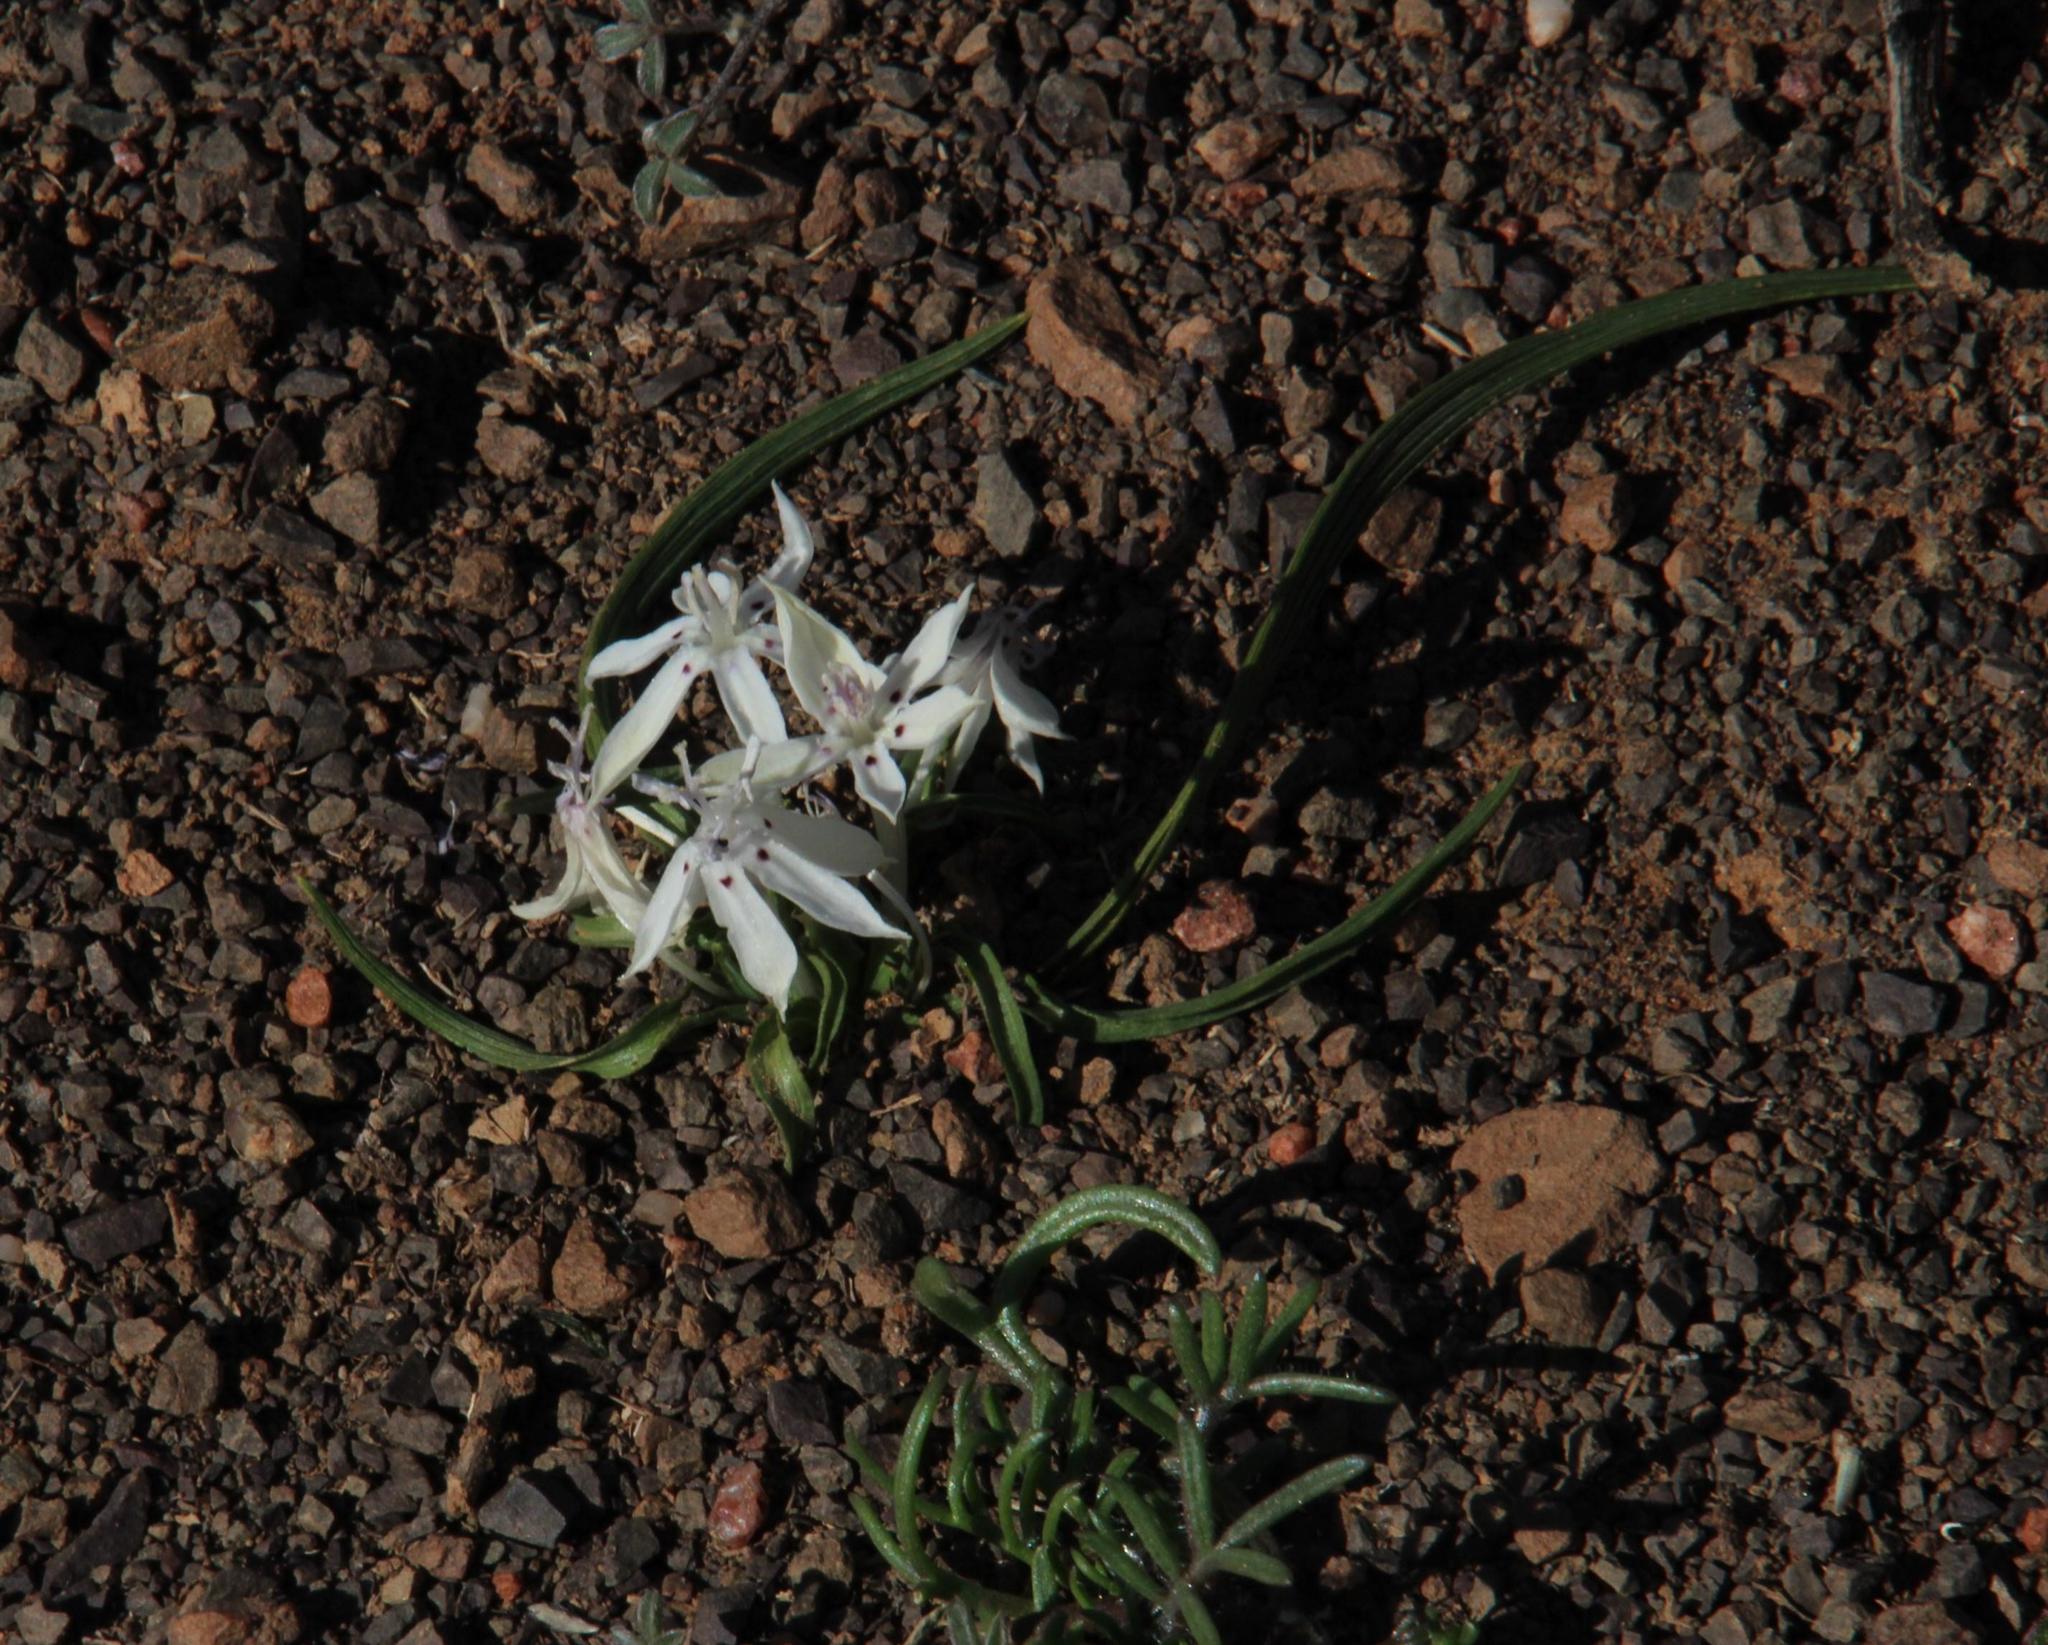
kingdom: Plantae
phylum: Tracheophyta
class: Liliopsida
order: Asparagales
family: Iridaceae
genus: Lapeirousia
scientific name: Lapeirousia plicata
